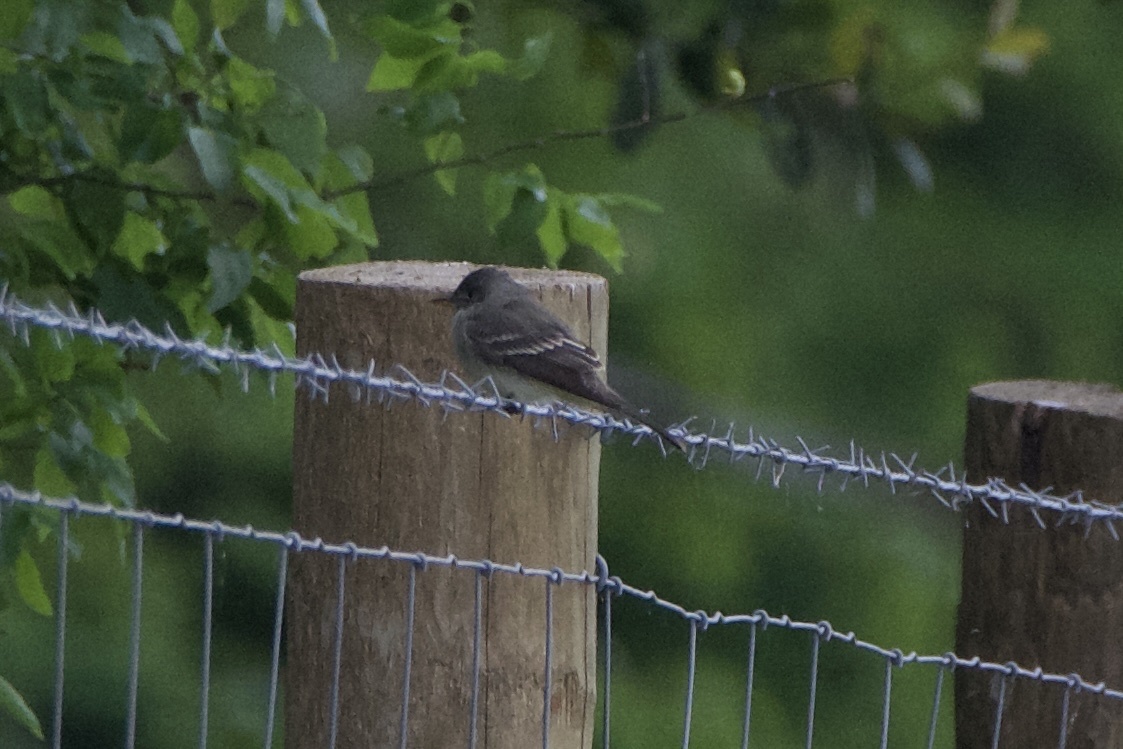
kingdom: Animalia
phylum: Chordata
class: Aves
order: Passeriformes
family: Tyrannidae
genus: Contopus
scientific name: Contopus virens
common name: Eastern wood-pewee
